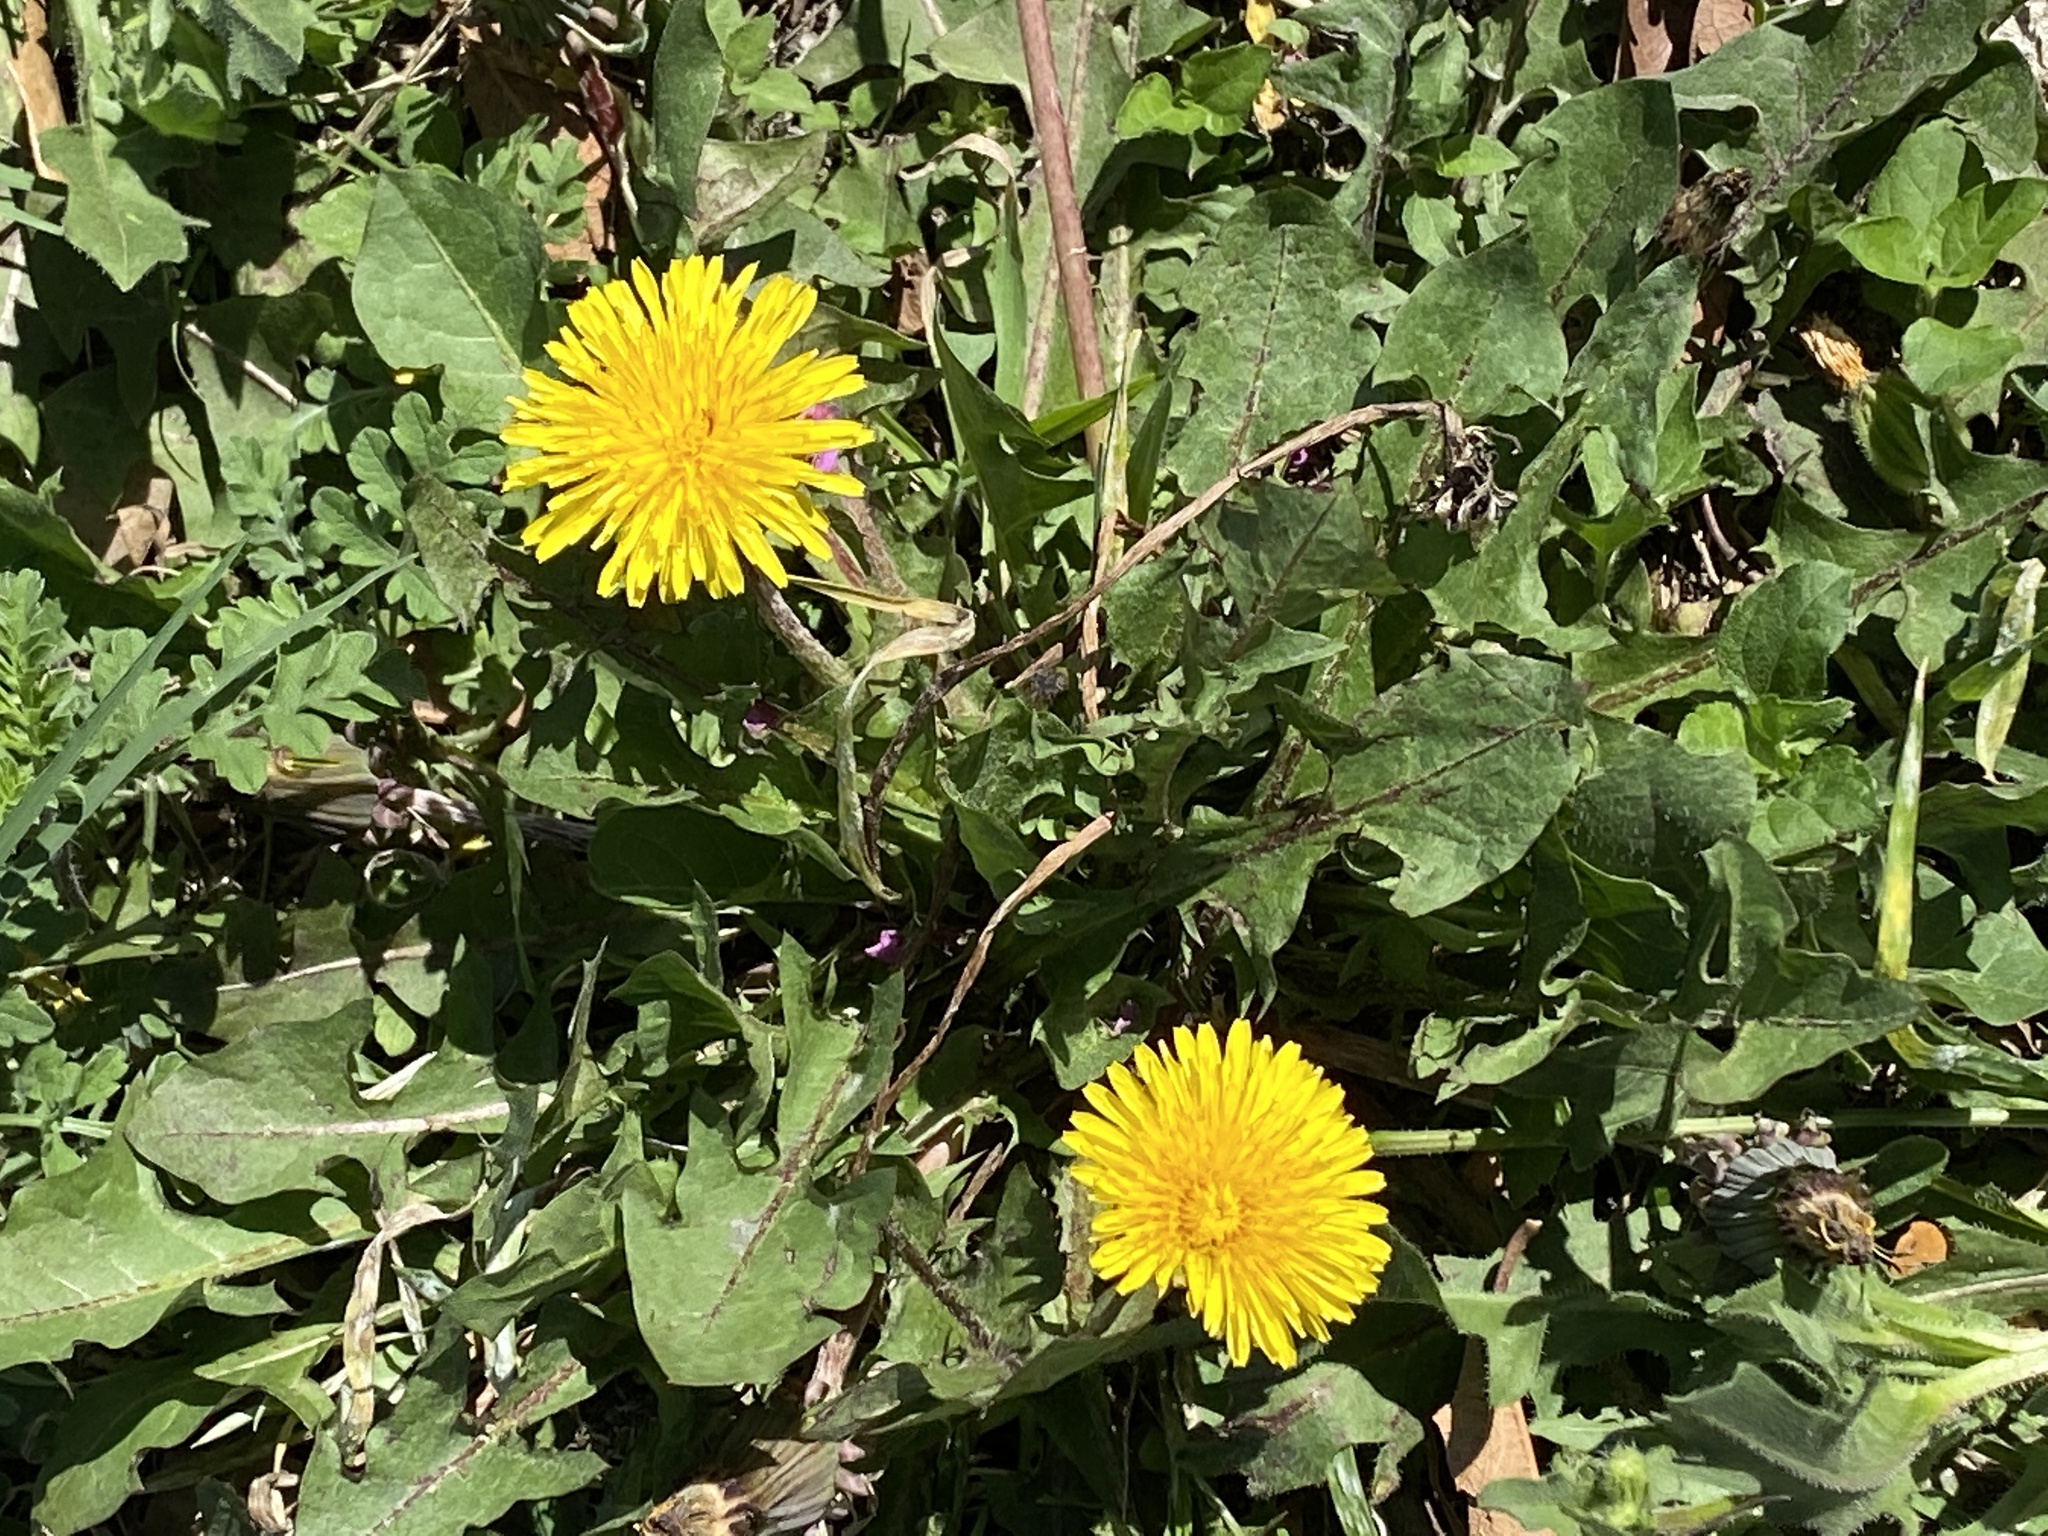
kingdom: Plantae
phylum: Tracheophyta
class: Magnoliopsida
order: Asterales
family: Asteraceae
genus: Taraxacum
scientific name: Taraxacum officinale
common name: Common dandelion
